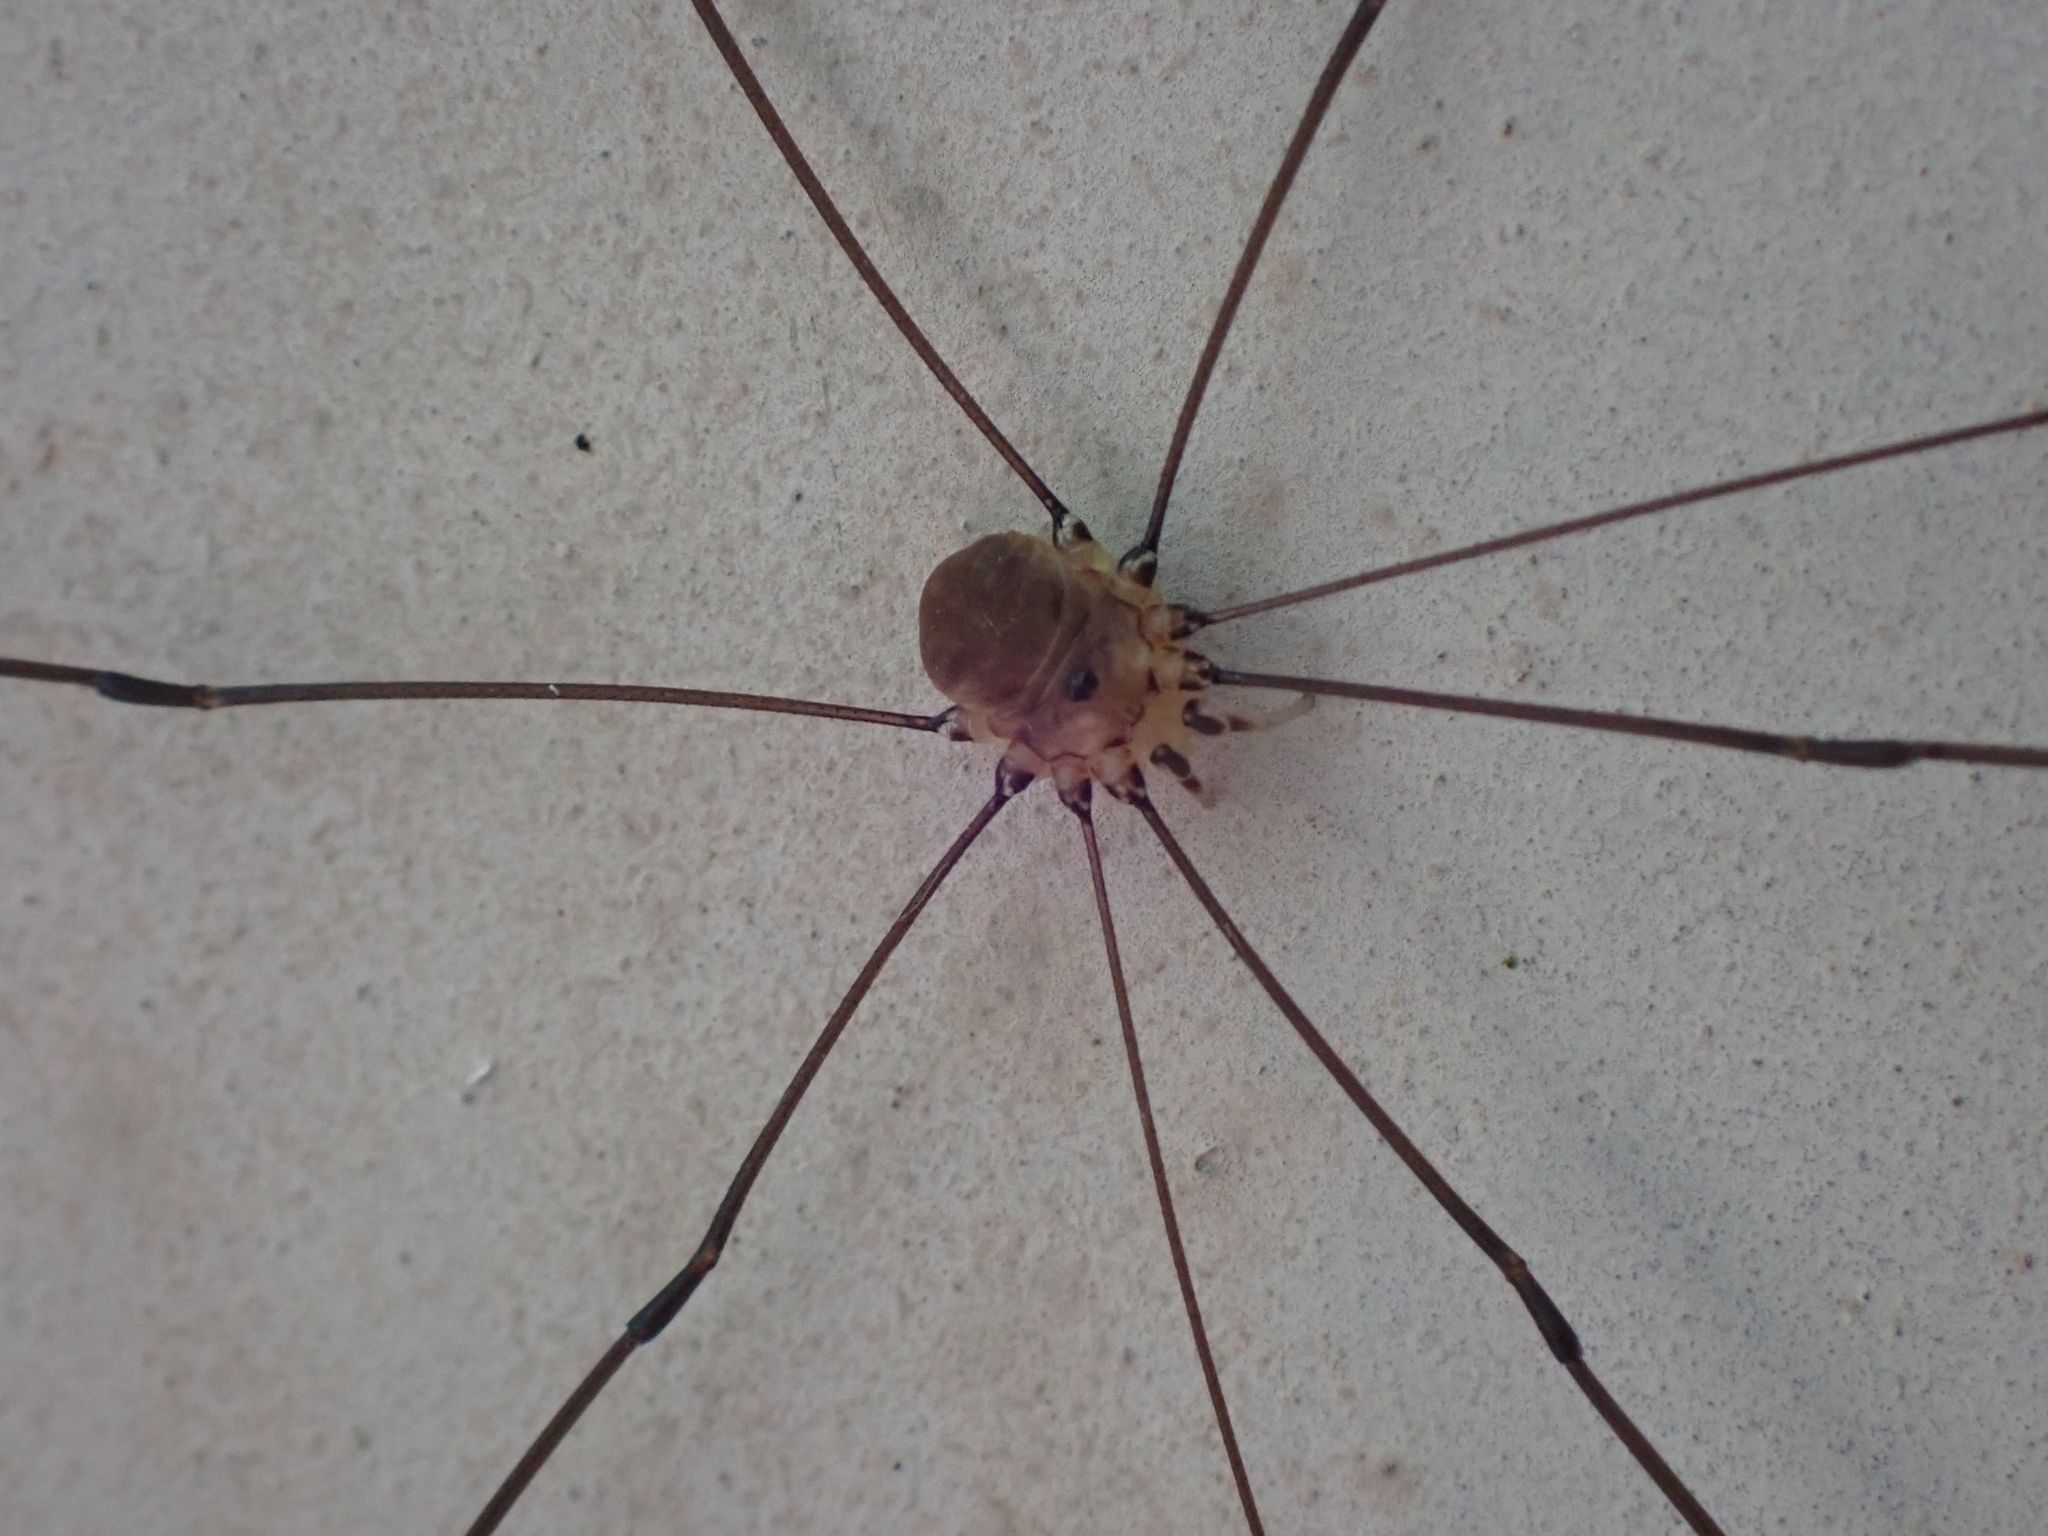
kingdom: Animalia
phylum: Arthropoda
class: Arachnida
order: Opiliones
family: Sclerosomatidae
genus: Leiobunum
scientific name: Leiobunum rotundum
